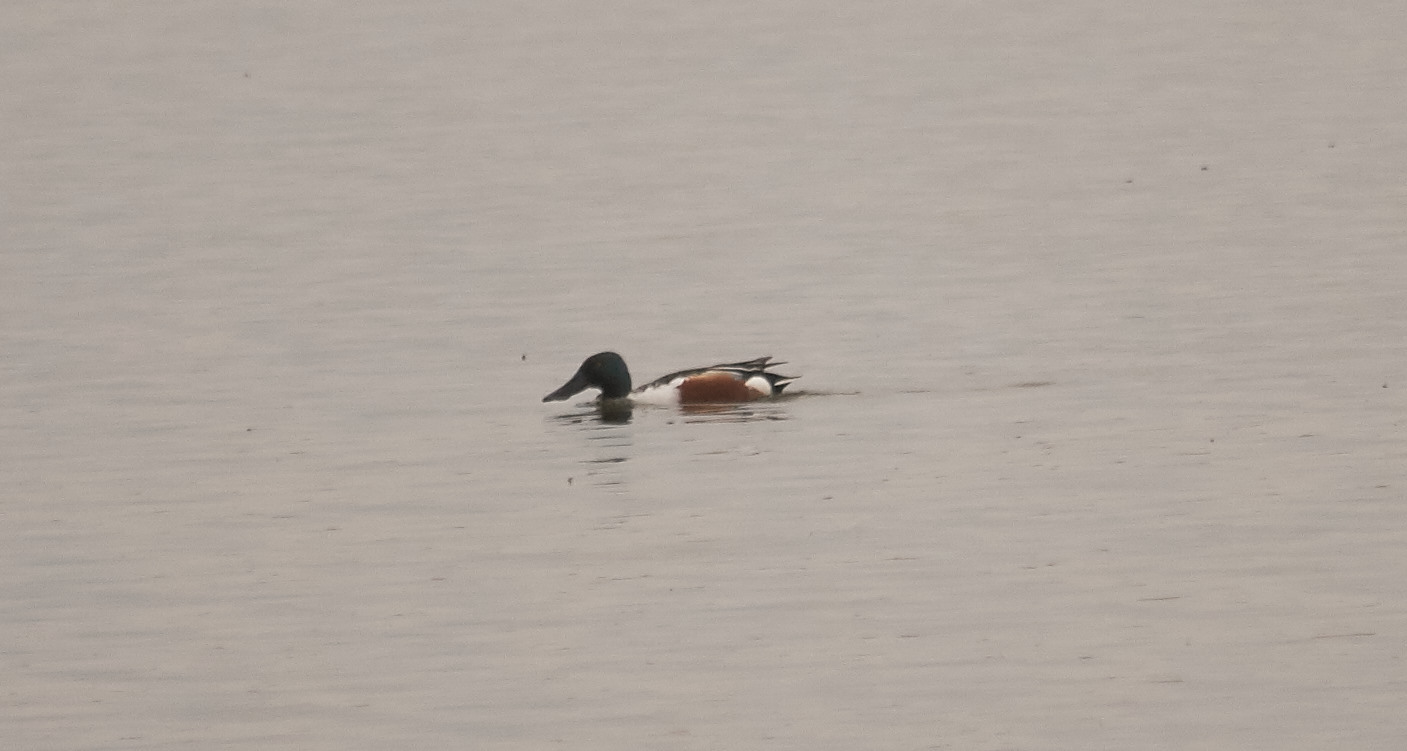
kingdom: Animalia
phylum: Chordata
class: Aves
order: Anseriformes
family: Anatidae
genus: Spatula
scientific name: Spatula clypeata
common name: Northern shoveler
